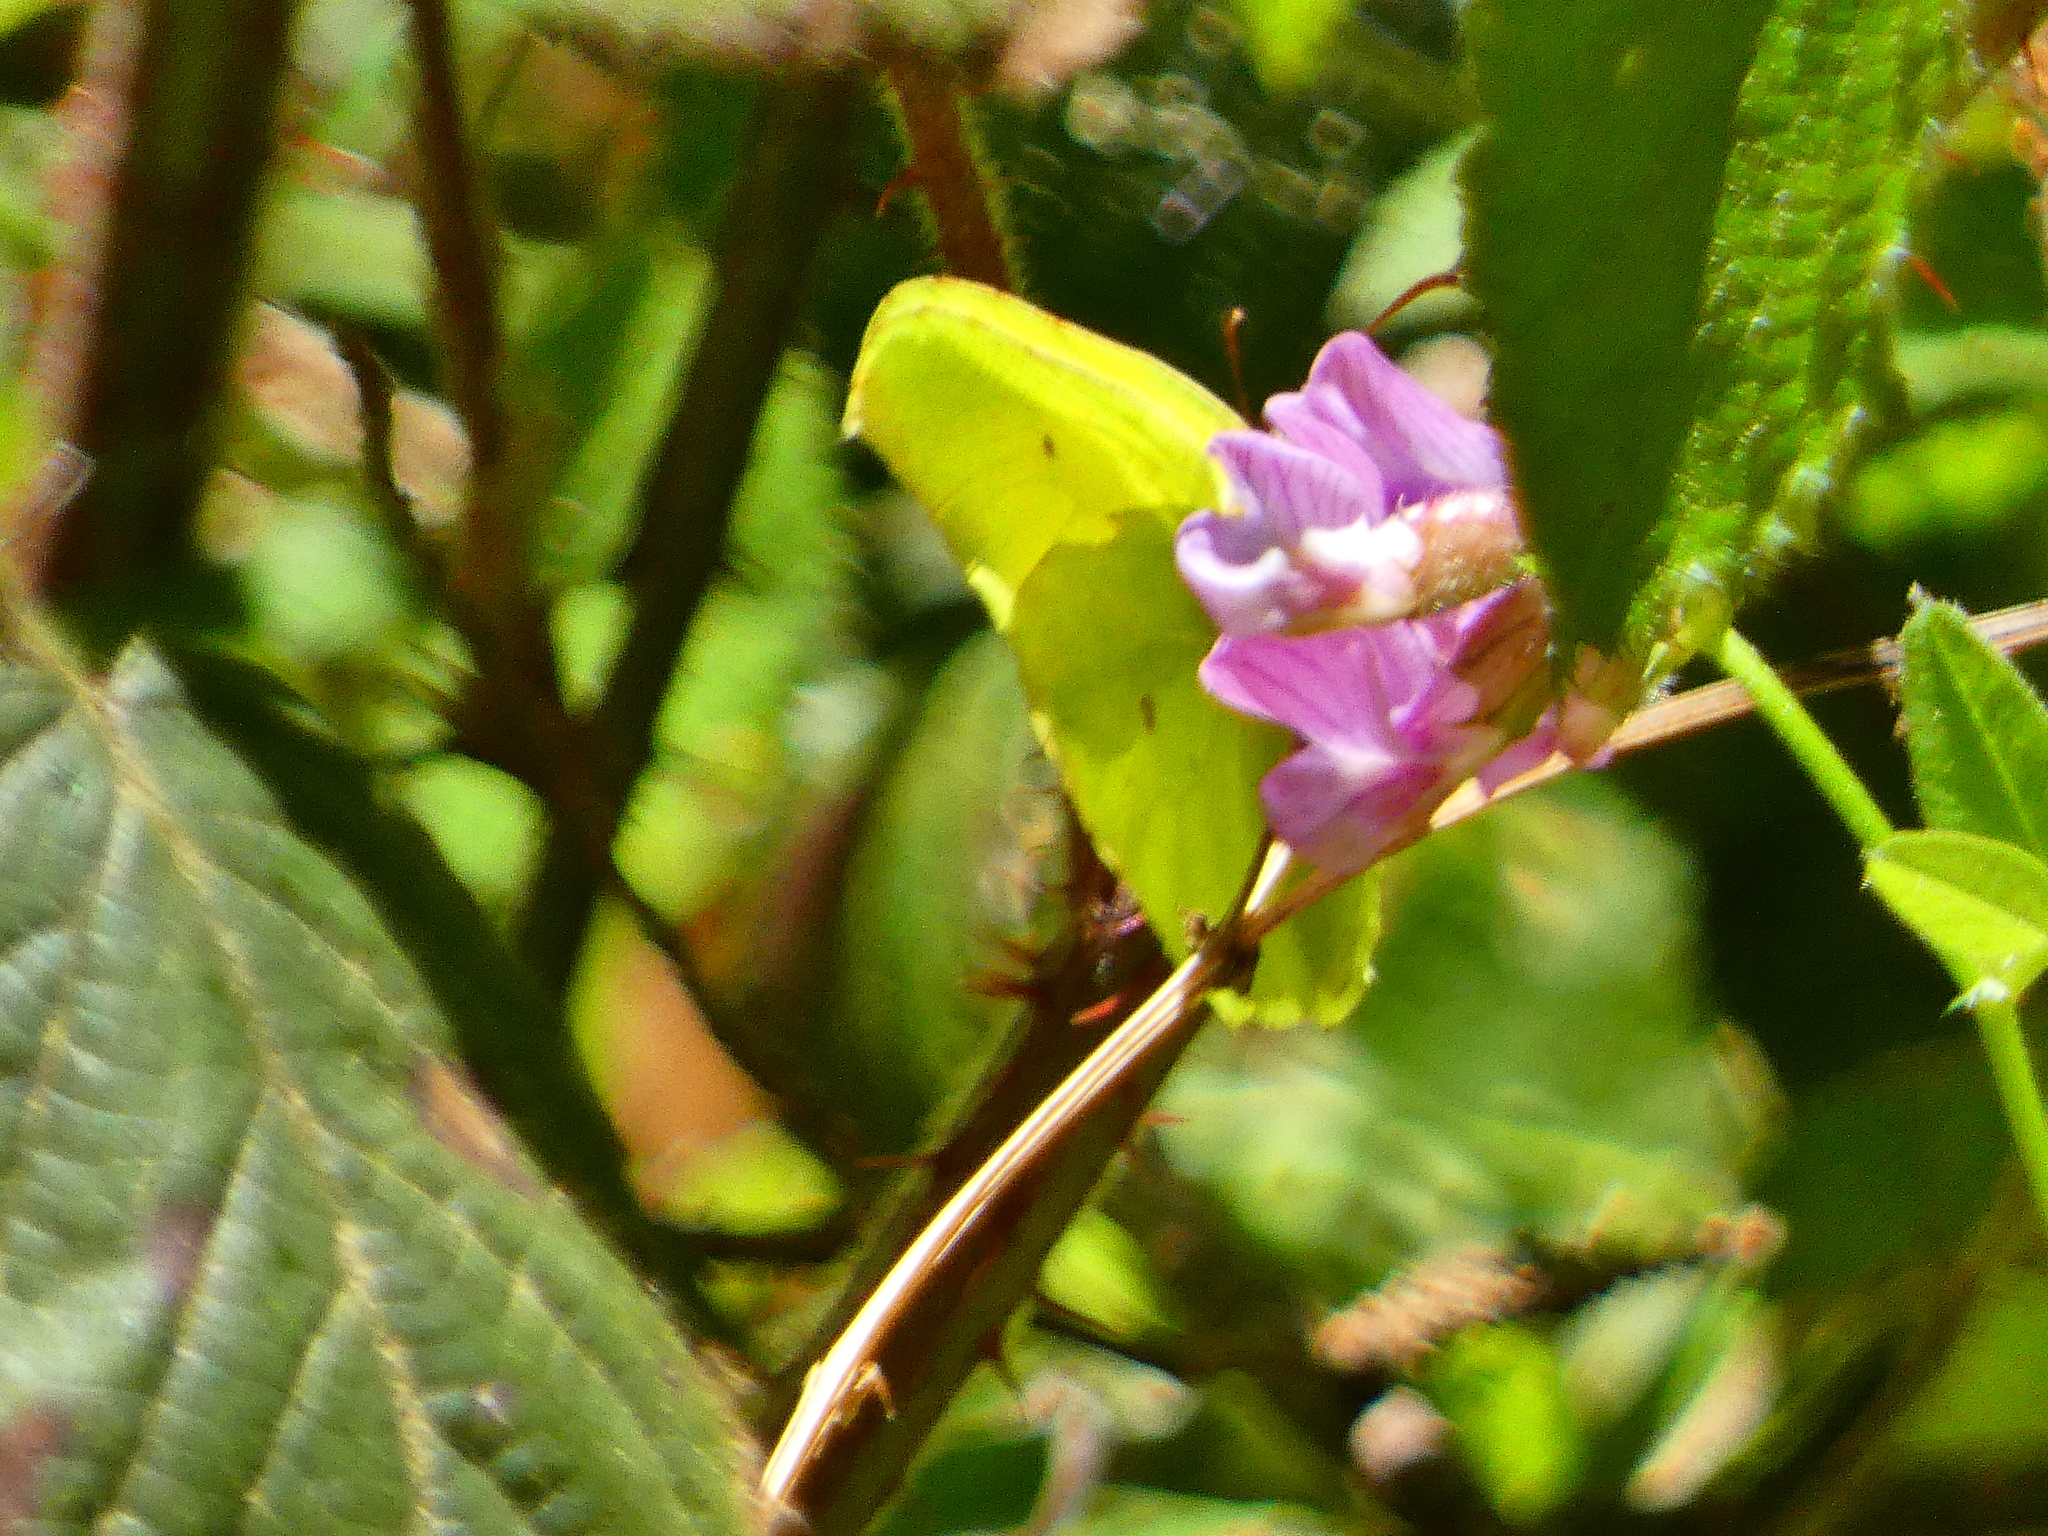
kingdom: Animalia
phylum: Arthropoda
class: Insecta
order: Lepidoptera
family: Pieridae
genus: Gonepteryx
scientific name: Gonepteryx rhamni
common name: Brimstone
